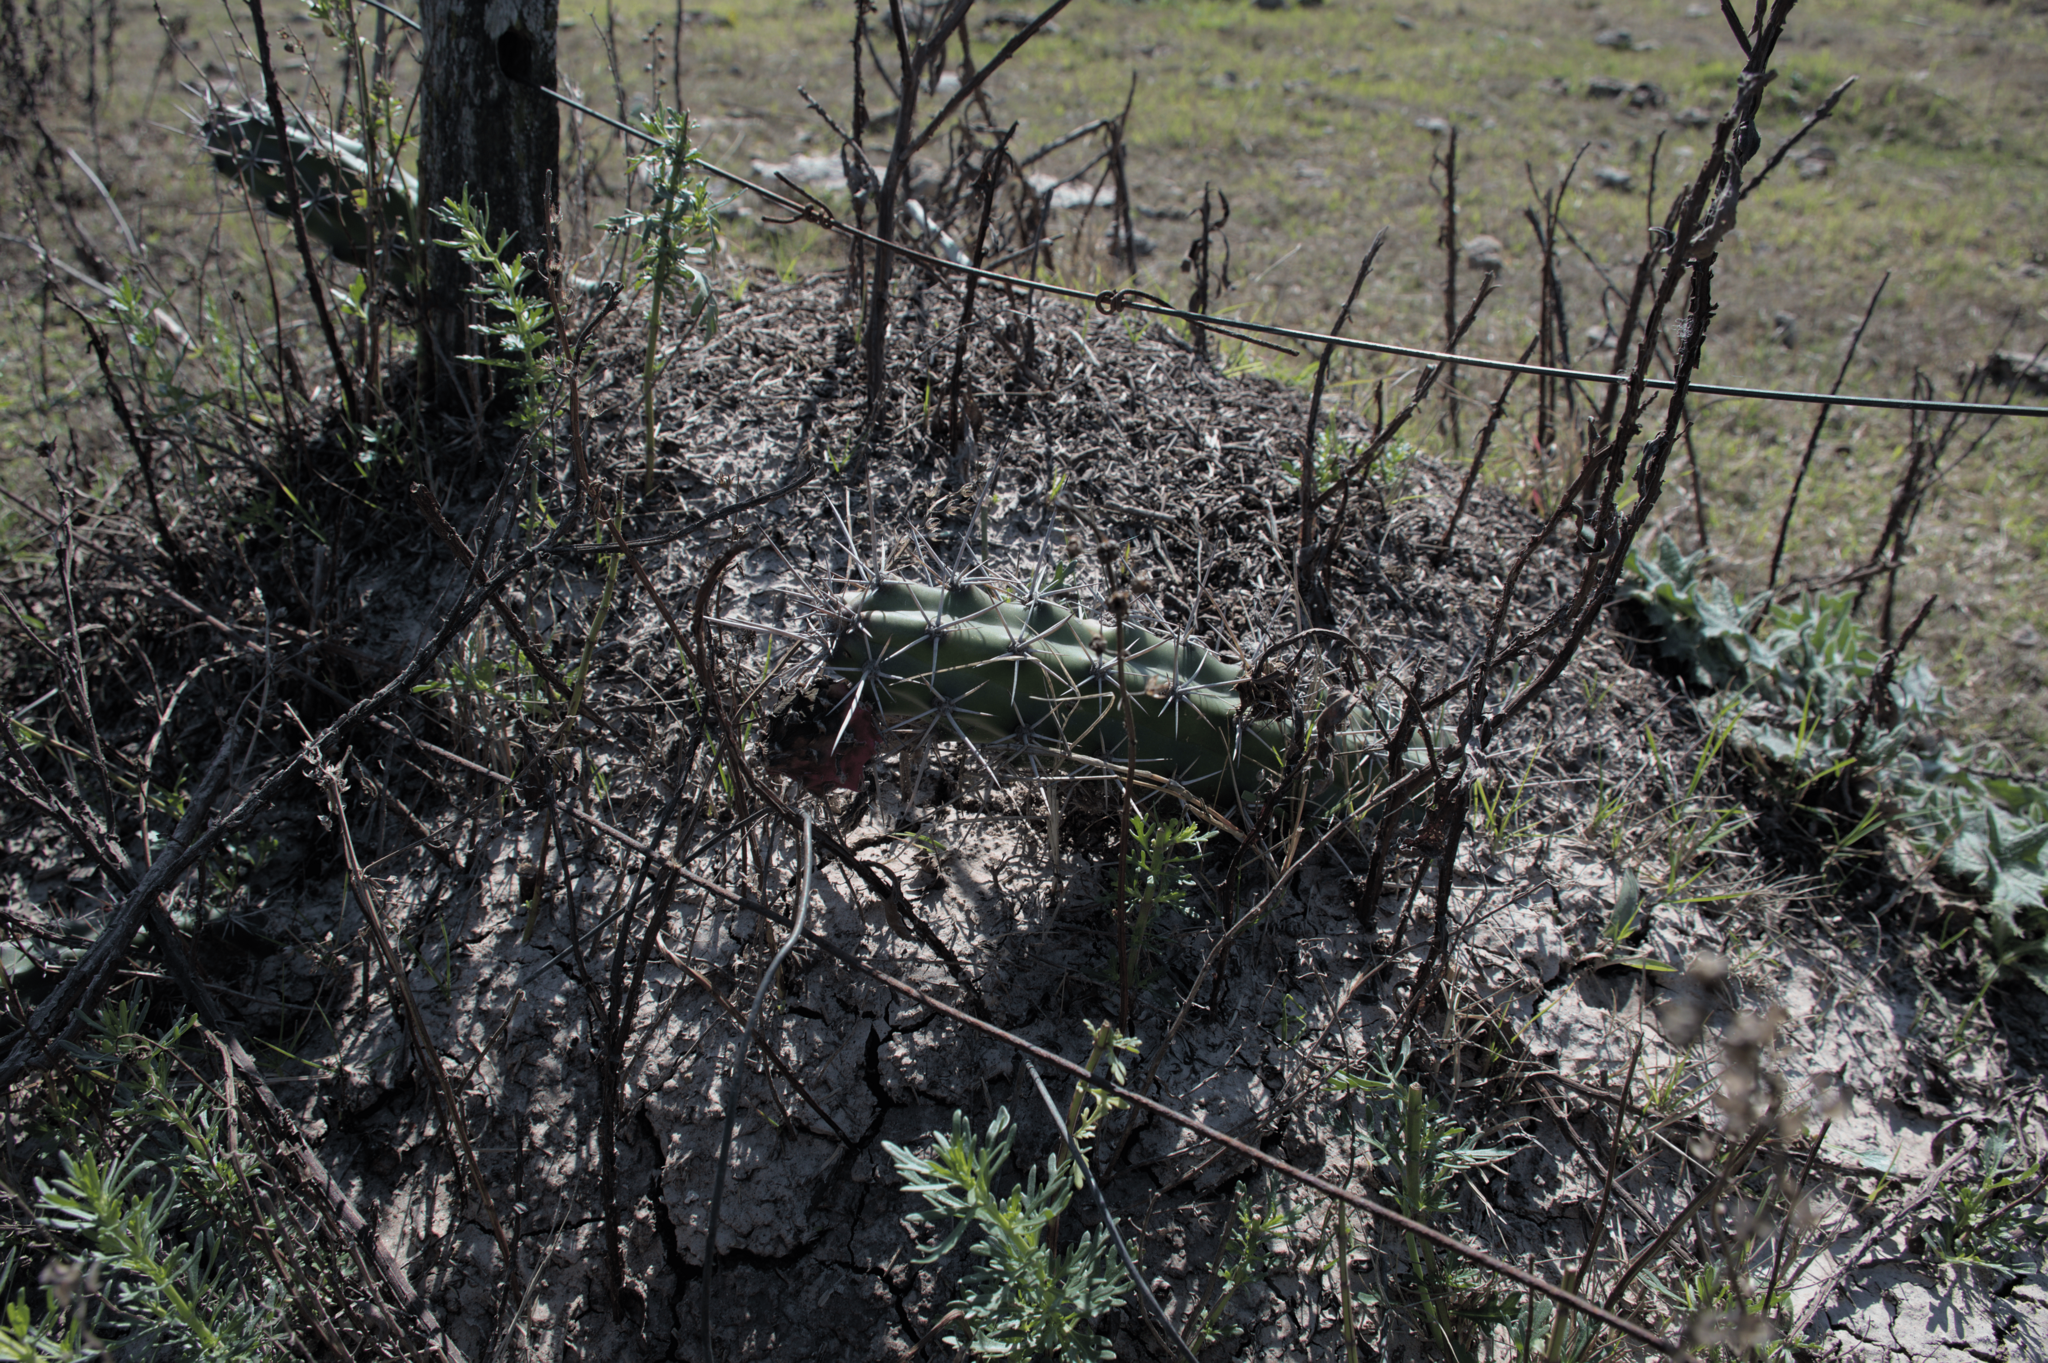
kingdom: Plantae
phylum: Tracheophyta
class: Magnoliopsida
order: Caryophyllales
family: Cactaceae
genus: Harrisia
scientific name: Harrisia pomanensis
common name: Midnight-lady
